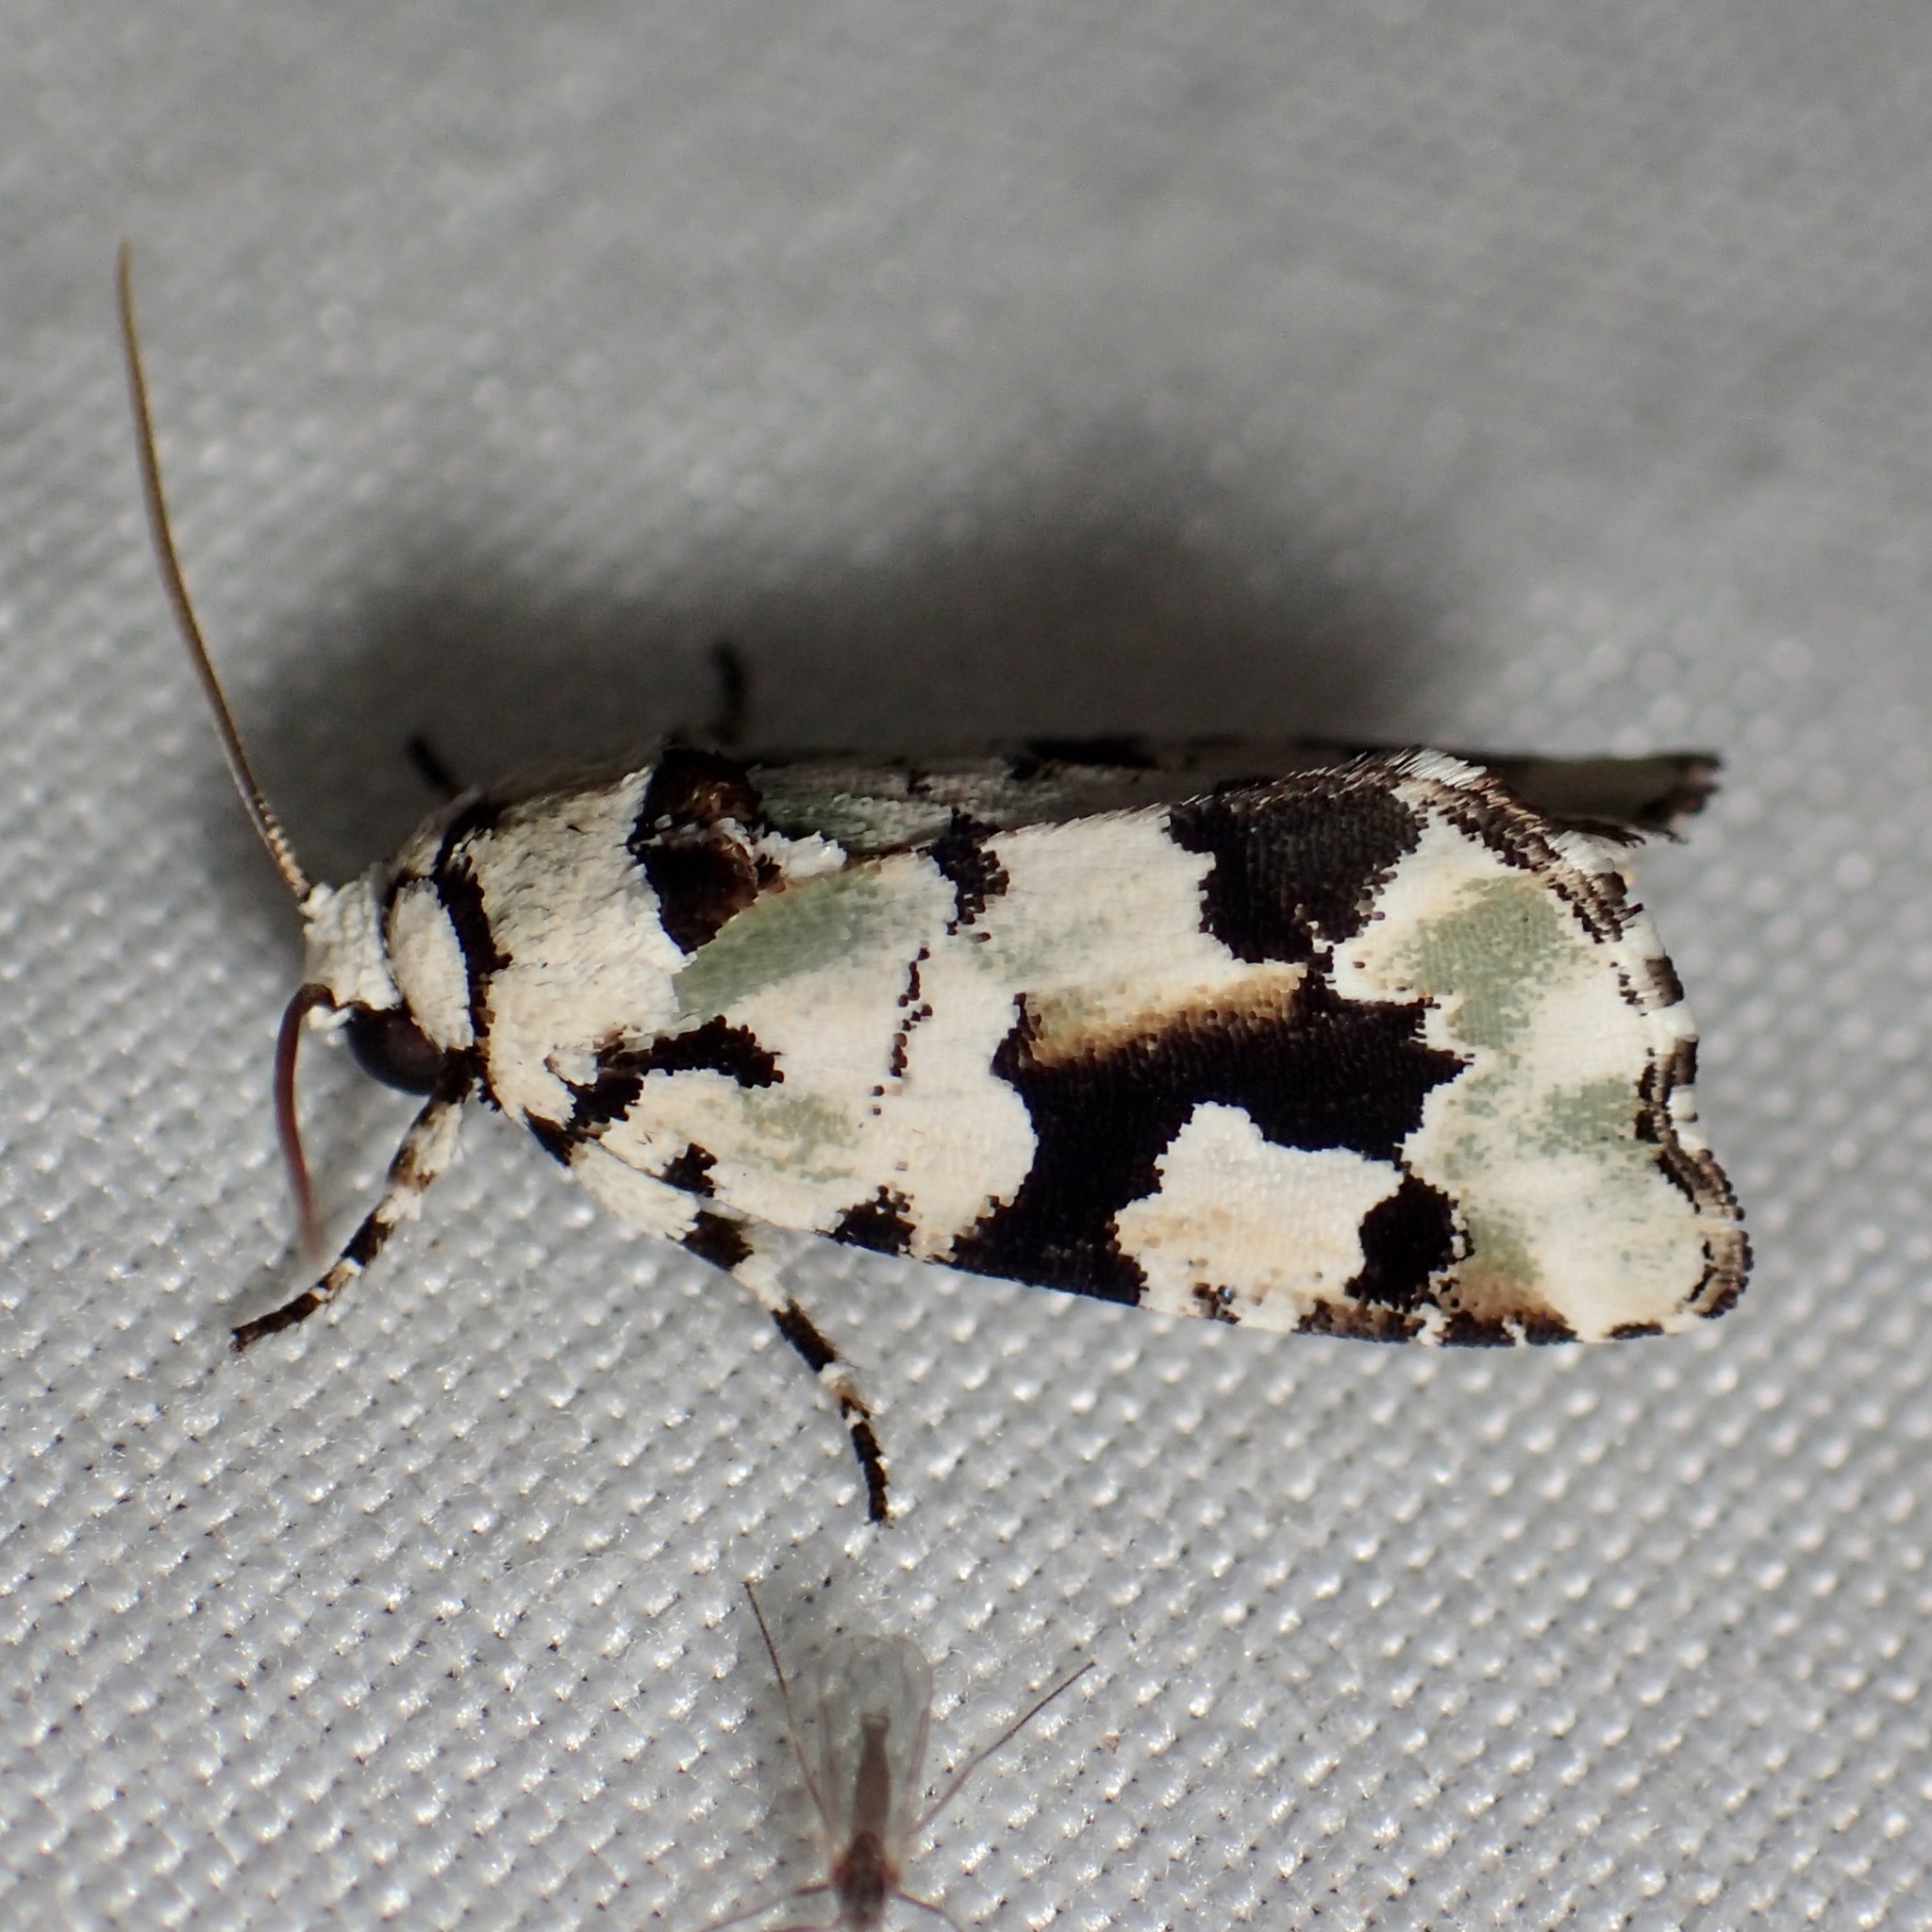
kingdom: Animalia
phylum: Arthropoda
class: Insecta
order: Lepidoptera
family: Noctuidae
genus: Emarginea
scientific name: Emarginea percara
